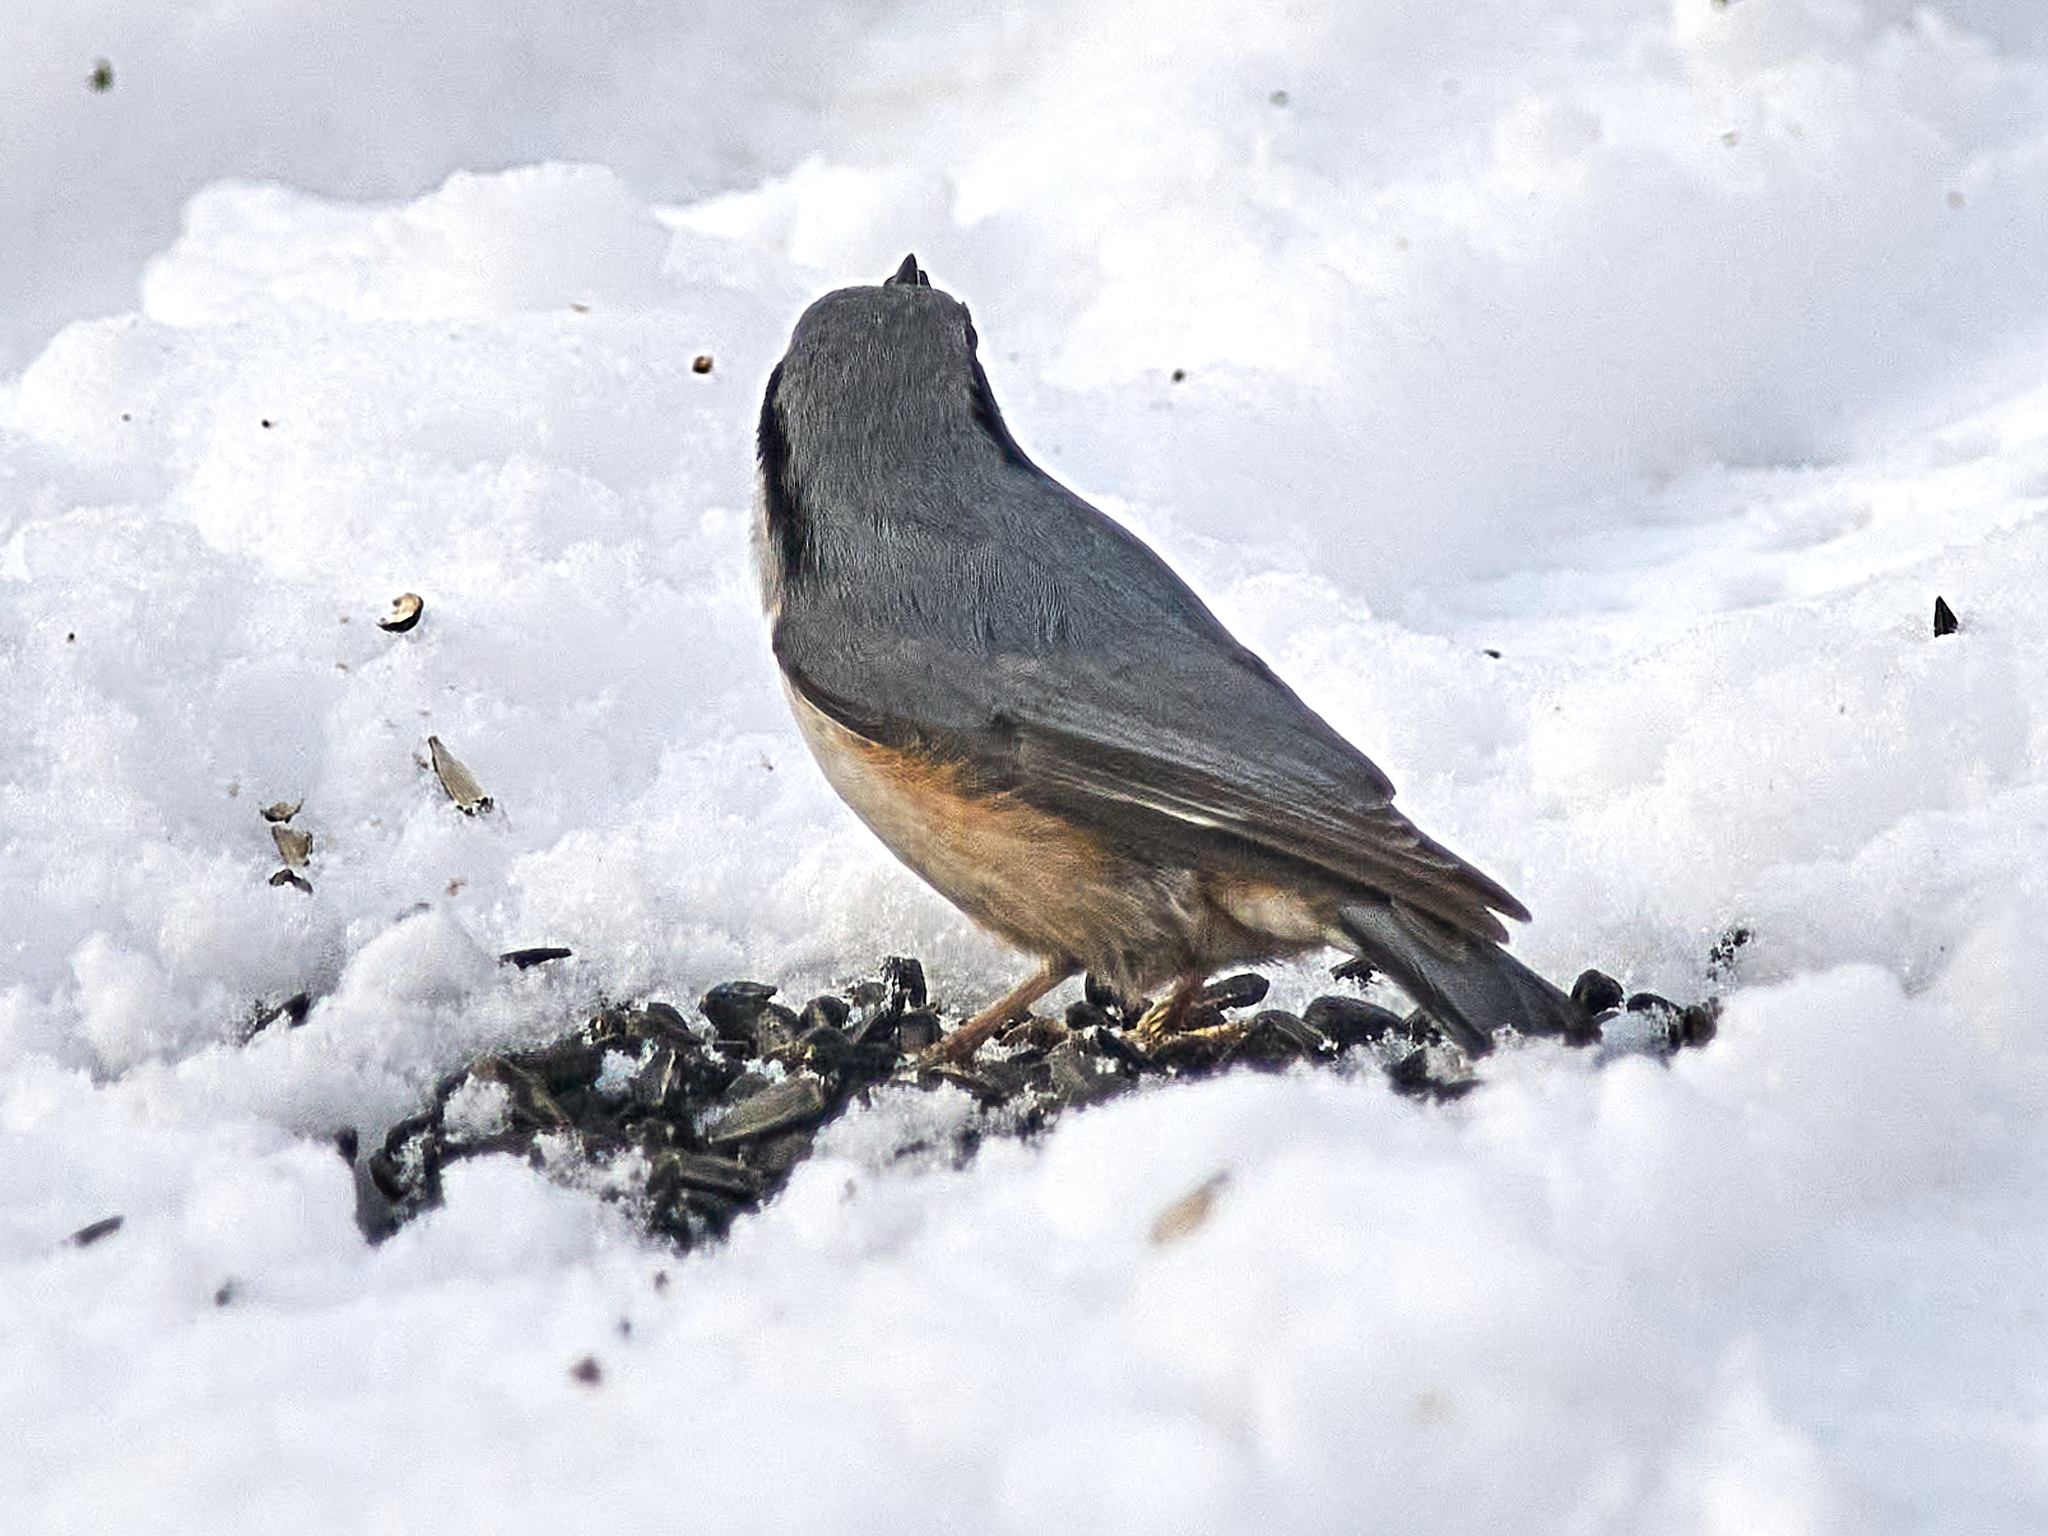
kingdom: Animalia
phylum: Chordata
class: Aves
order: Passeriformes
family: Sittidae
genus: Sitta
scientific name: Sitta europaea
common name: Eurasian nuthatch
